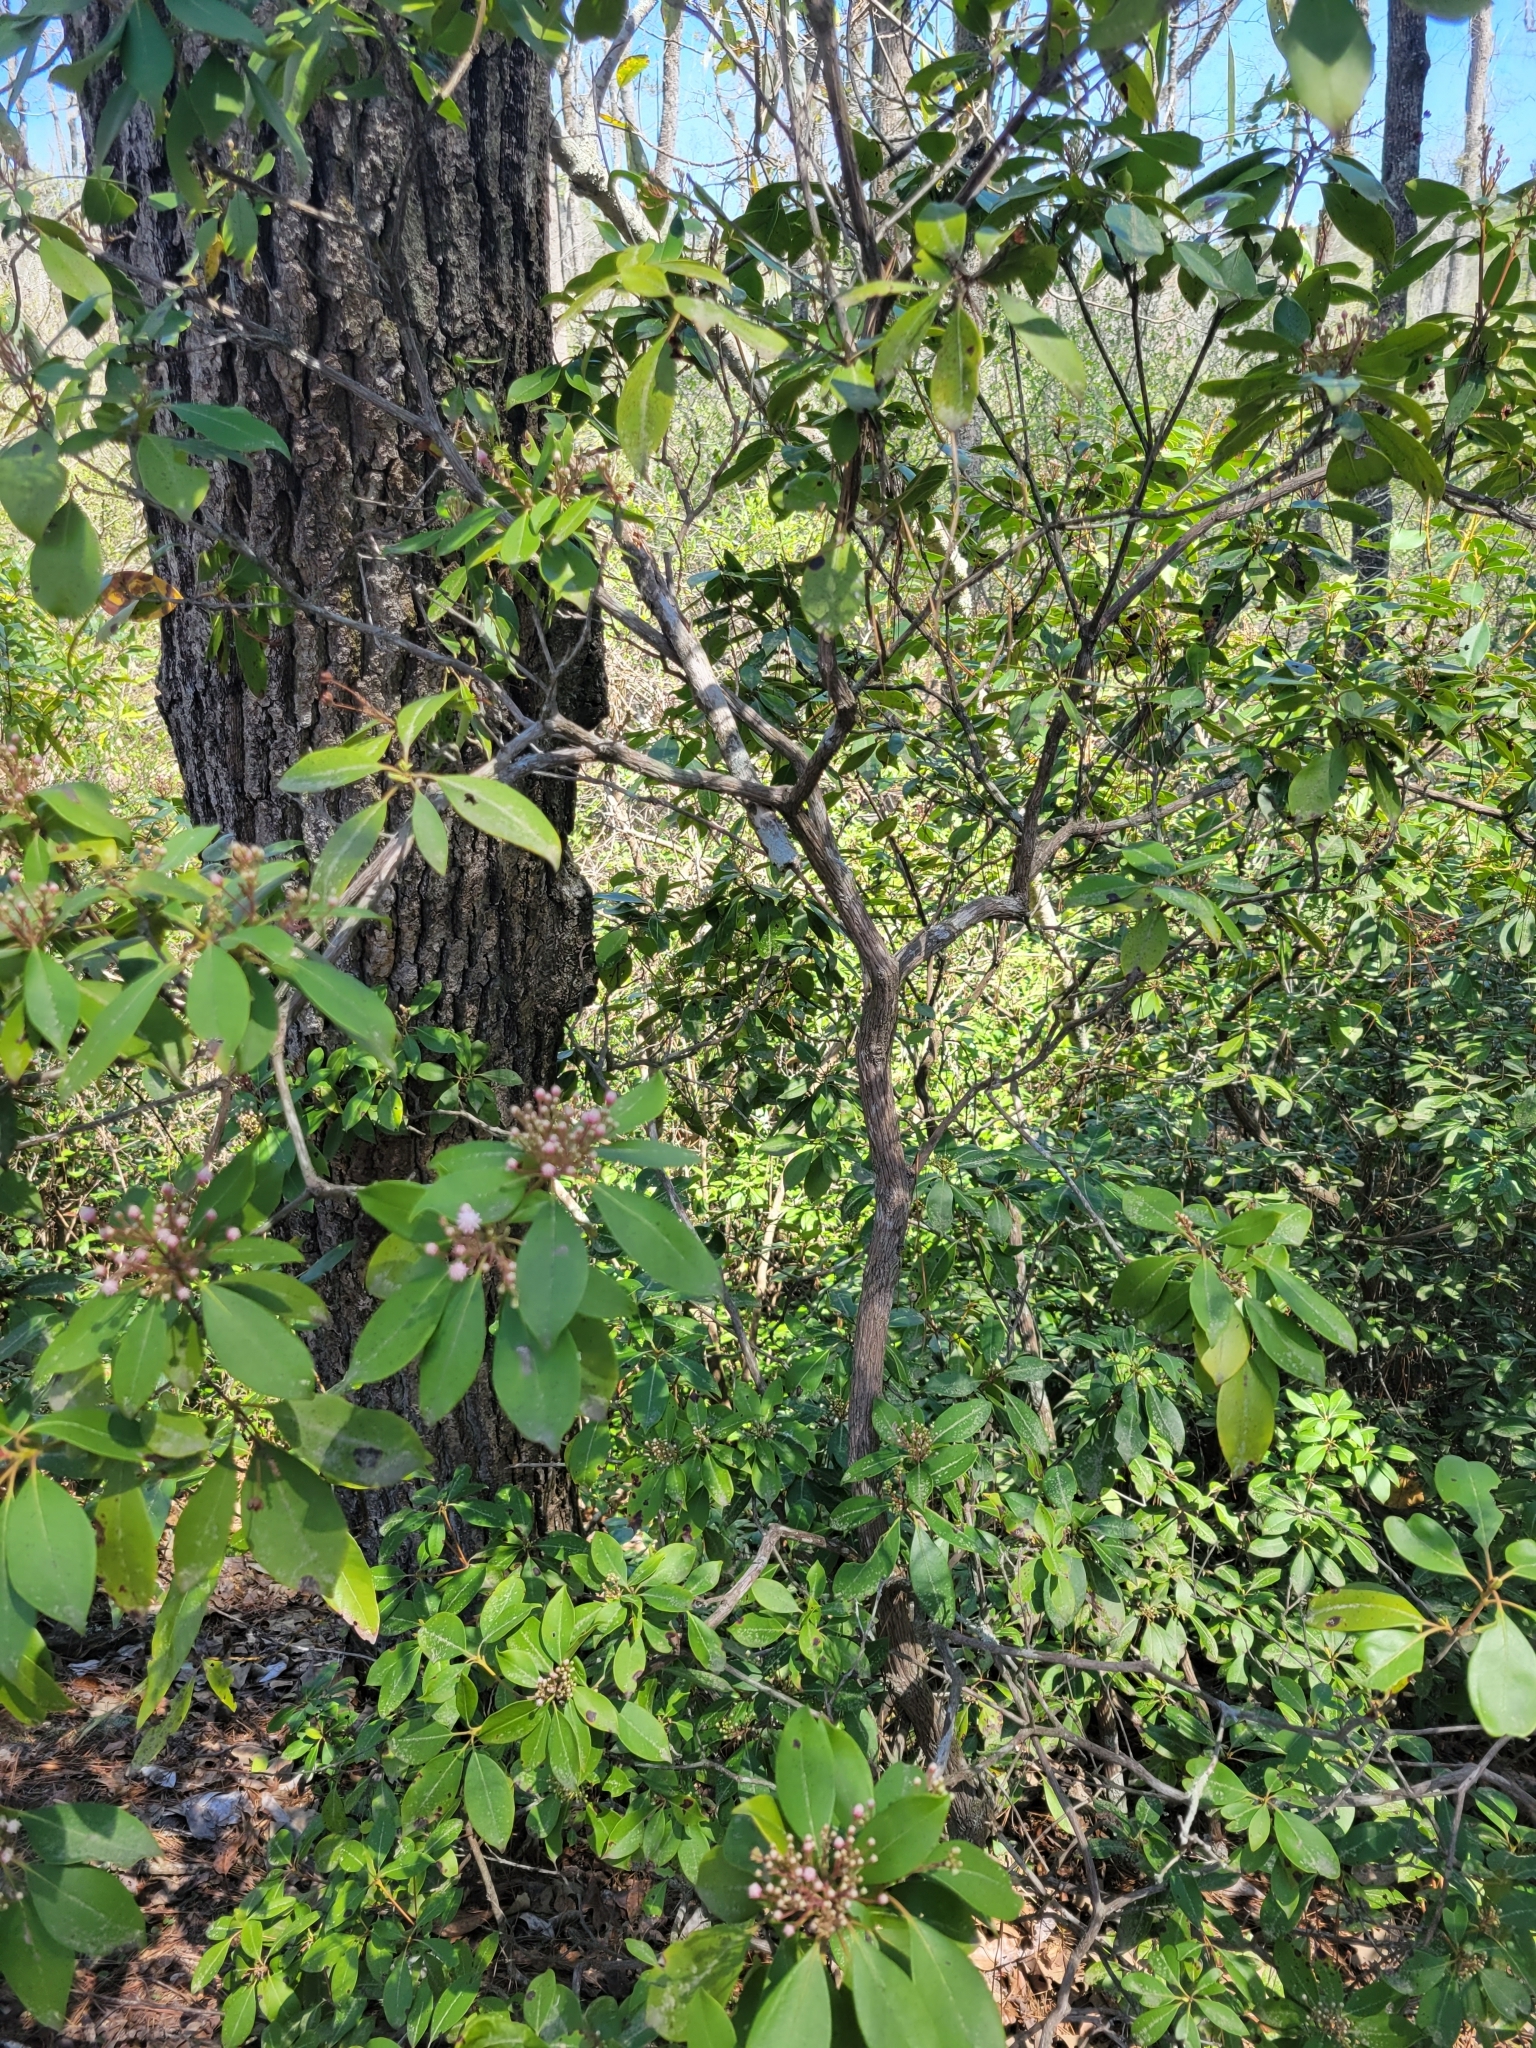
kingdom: Plantae
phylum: Tracheophyta
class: Magnoliopsida
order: Ericales
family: Ericaceae
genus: Kalmia
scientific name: Kalmia latifolia
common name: Mountain-laurel
